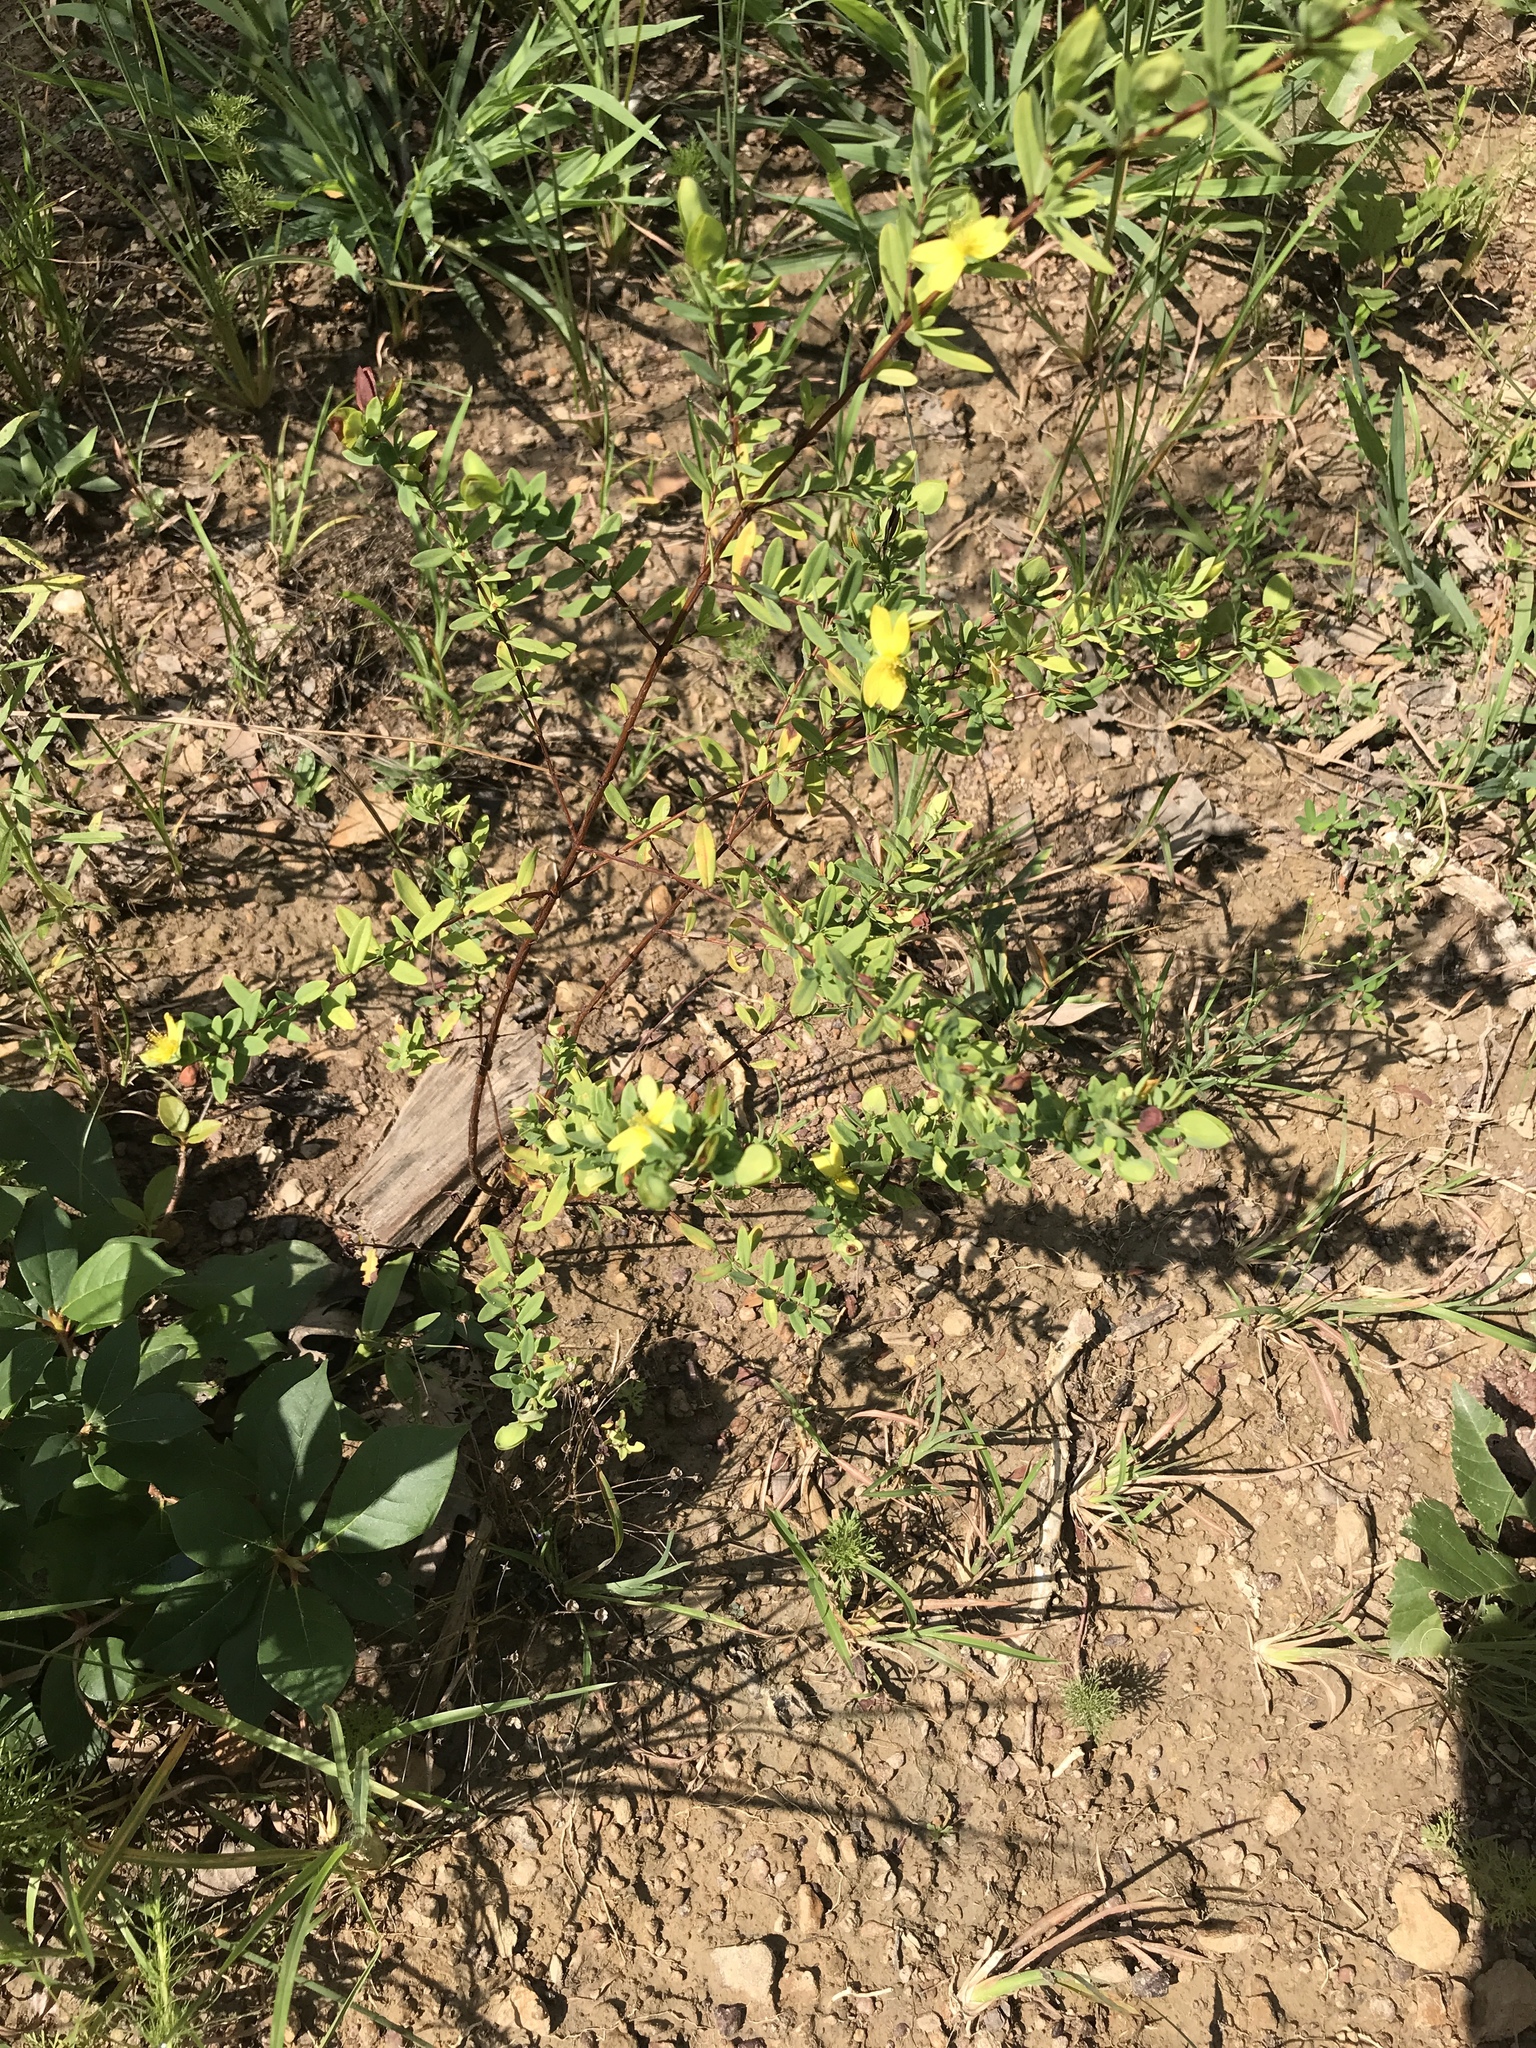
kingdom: Plantae
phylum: Tracheophyta
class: Magnoliopsida
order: Malpighiales
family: Hypericaceae
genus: Hypericum
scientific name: Hypericum hypericoides
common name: St. andrew's cross
